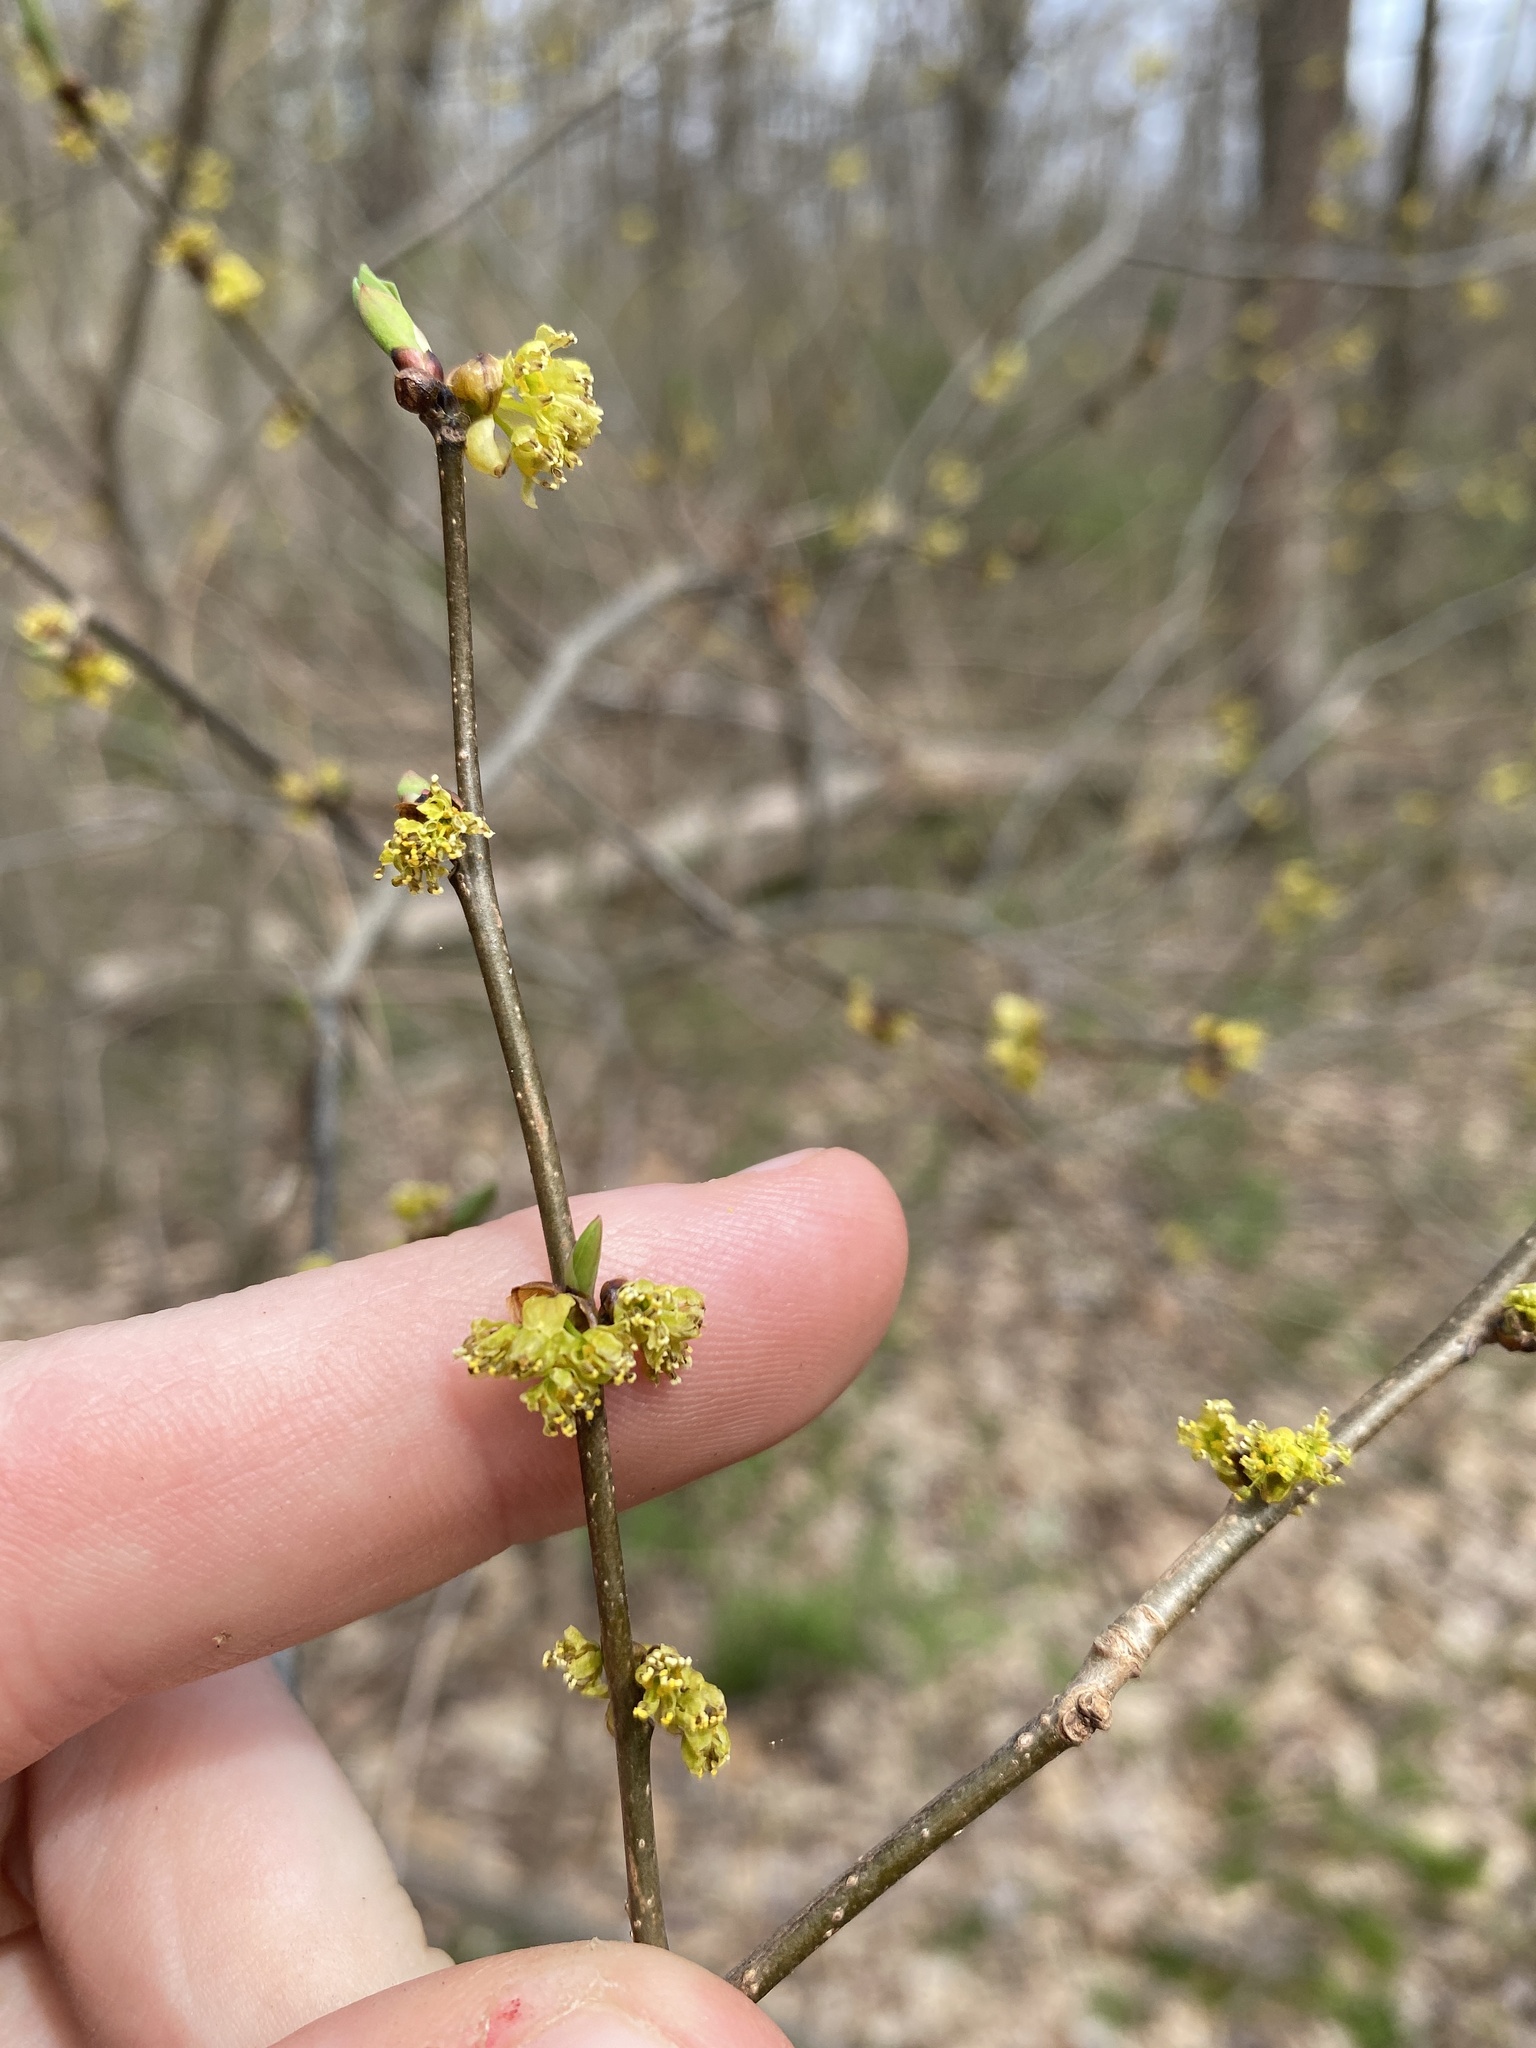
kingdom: Plantae
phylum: Tracheophyta
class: Magnoliopsida
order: Laurales
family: Lauraceae
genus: Lindera
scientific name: Lindera benzoin
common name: Spicebush
